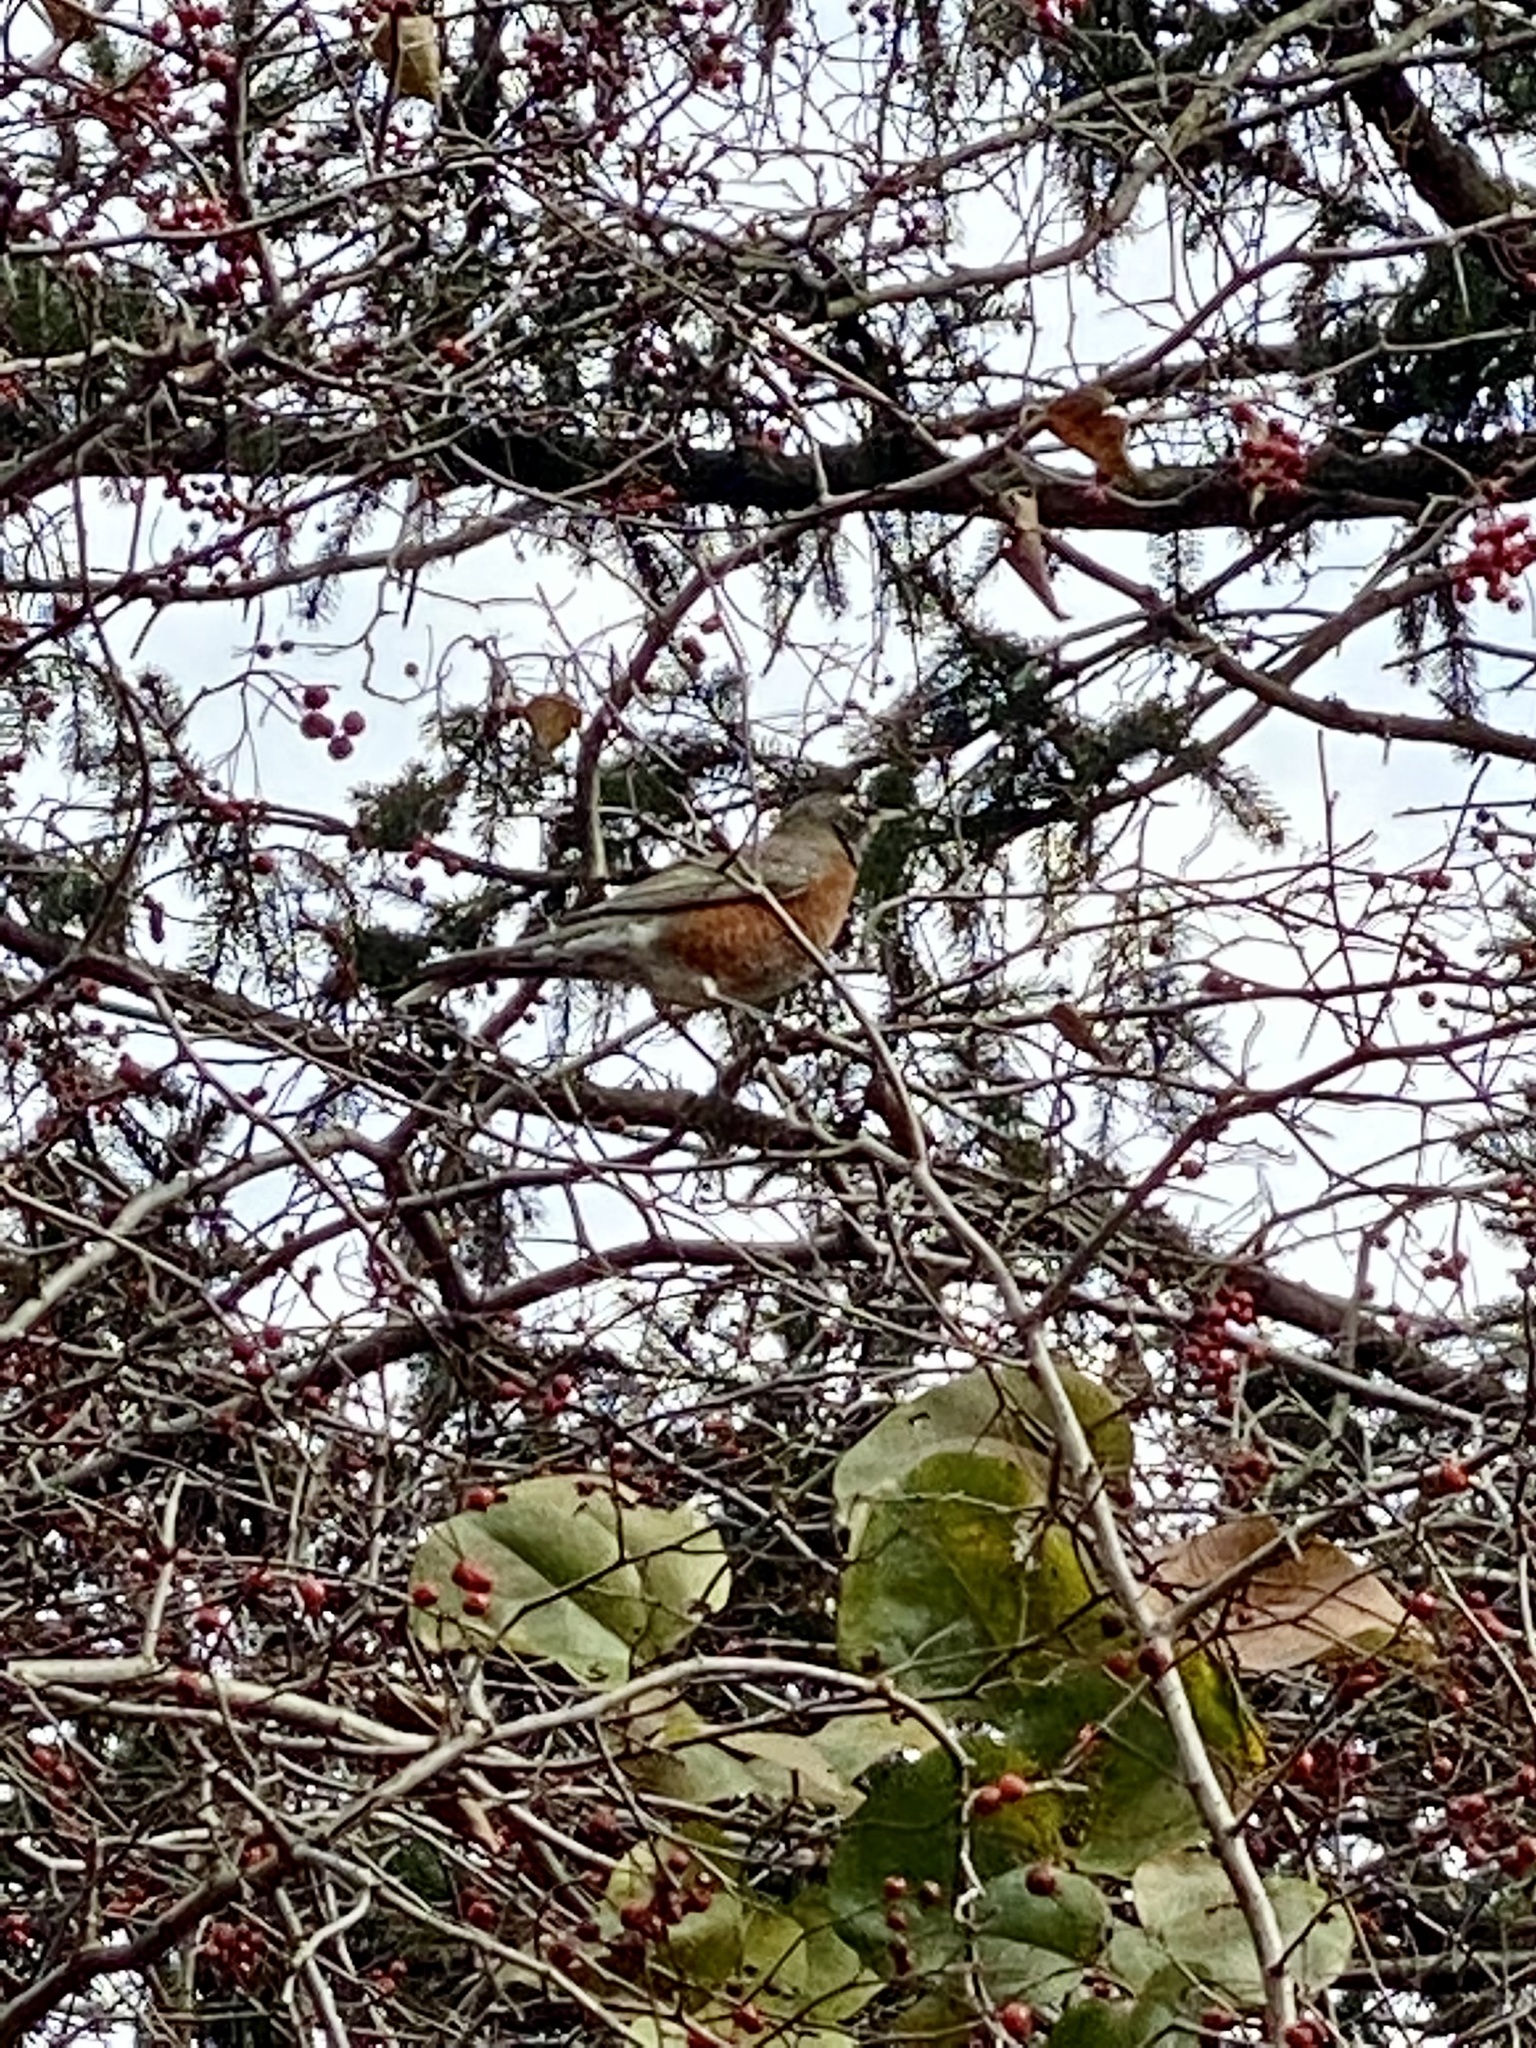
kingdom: Animalia
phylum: Chordata
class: Aves
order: Passeriformes
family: Turdidae
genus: Turdus
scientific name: Turdus migratorius
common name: American robin
